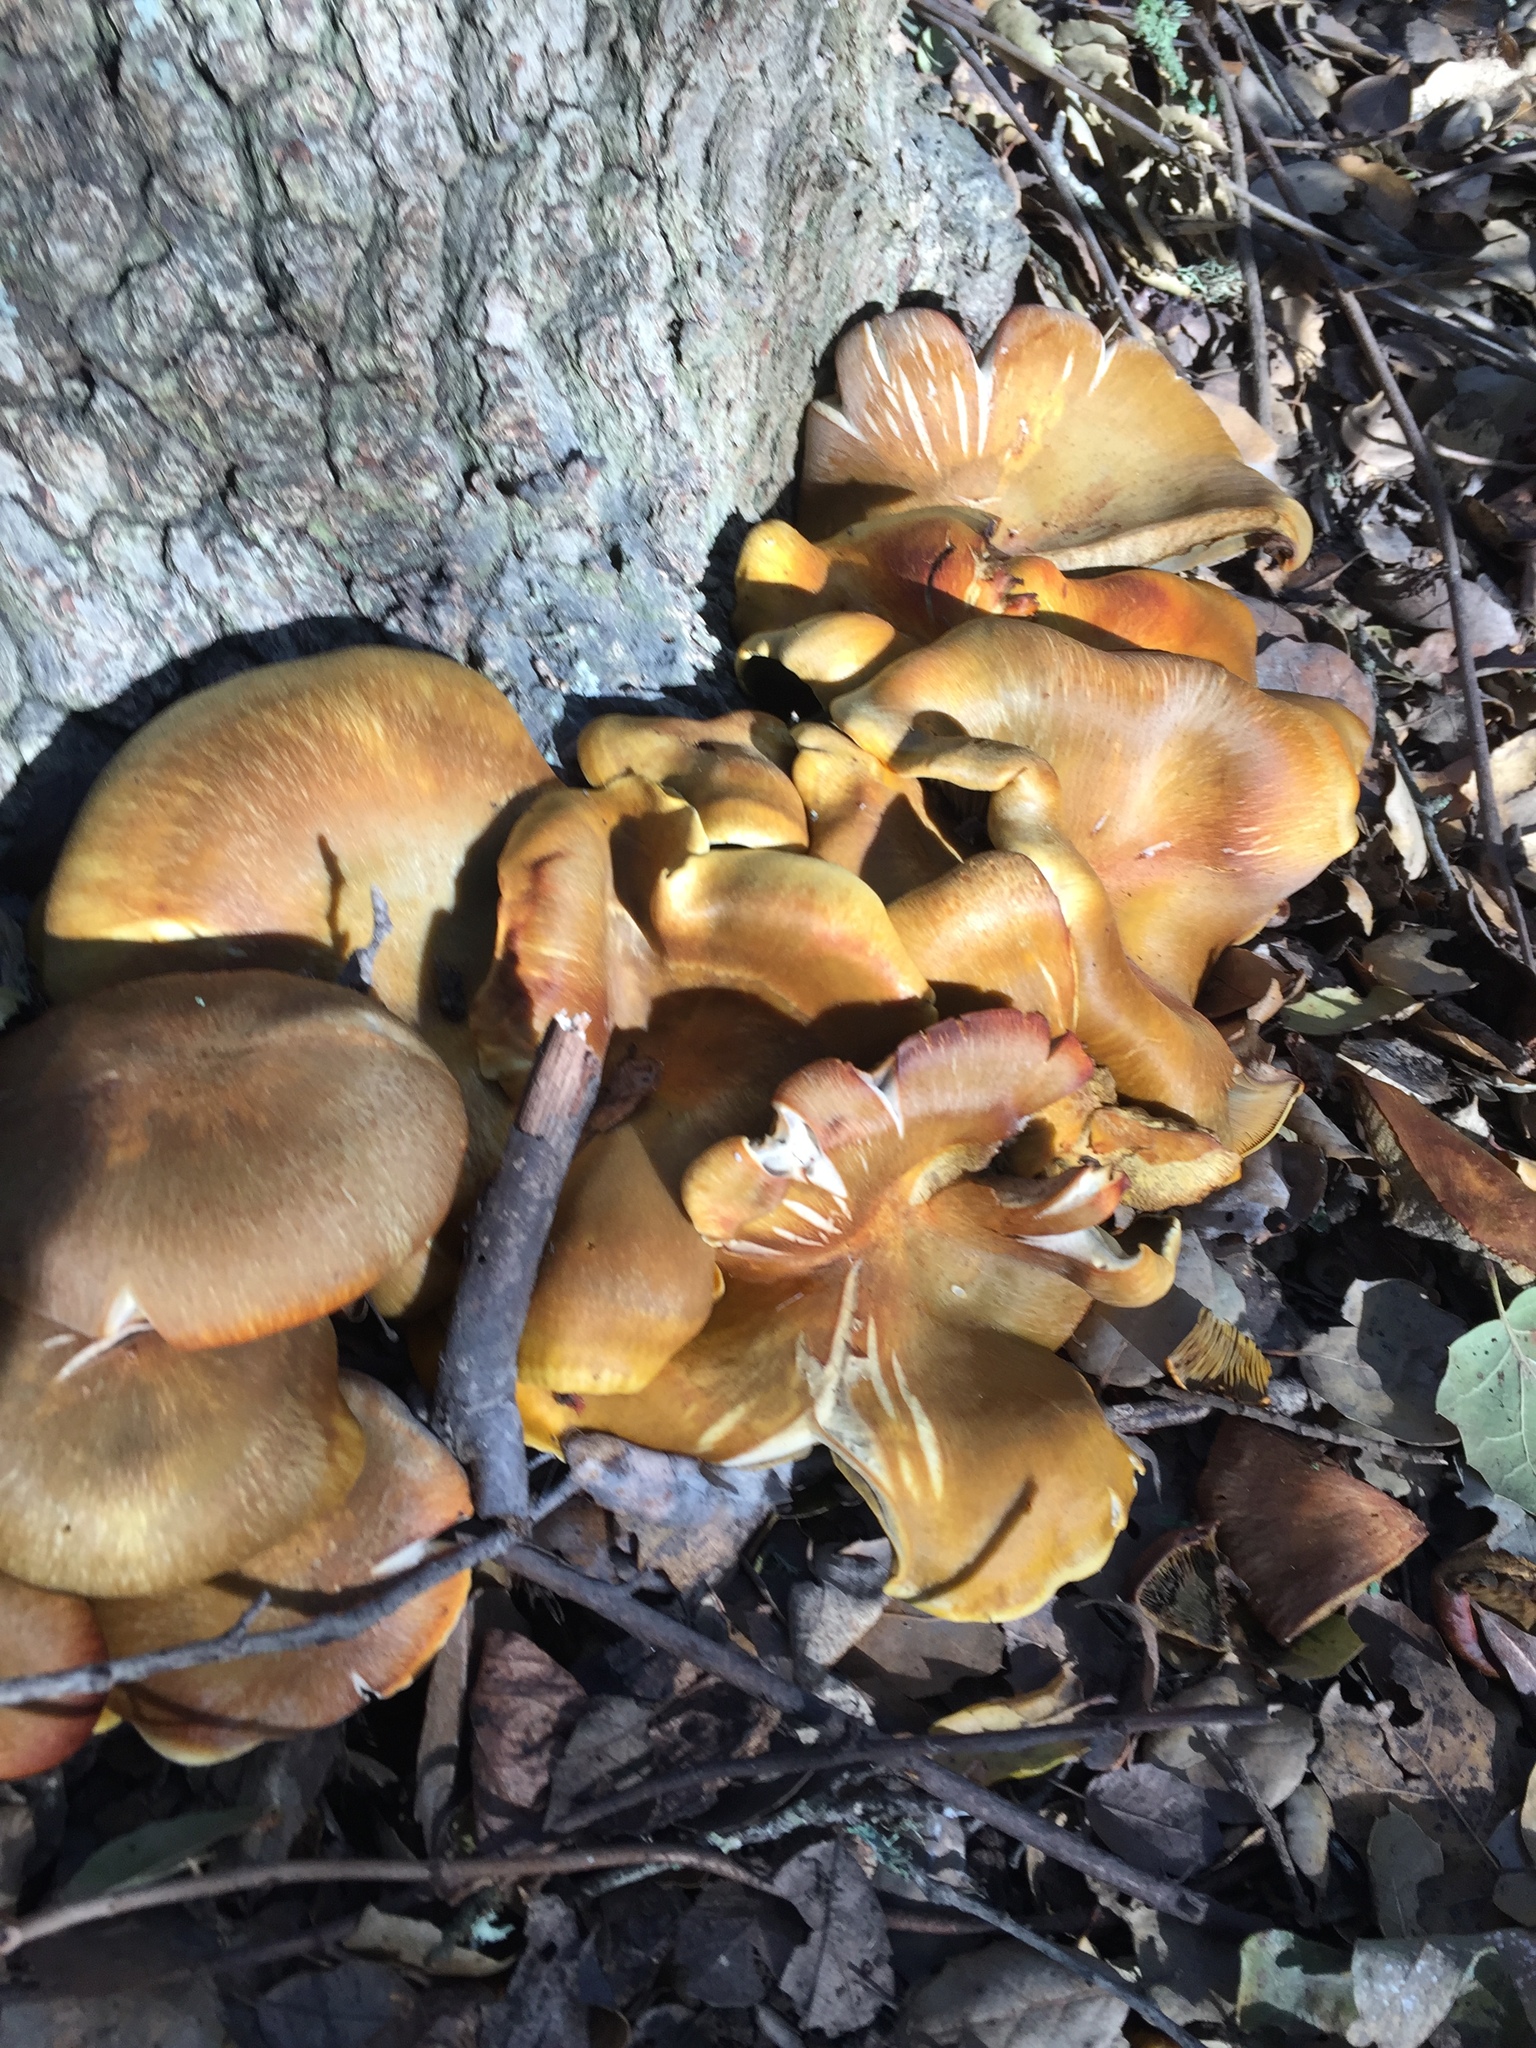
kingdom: Fungi
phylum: Basidiomycota
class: Agaricomycetes
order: Agaricales
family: Omphalotaceae
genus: Omphalotus
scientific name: Omphalotus olivascens
